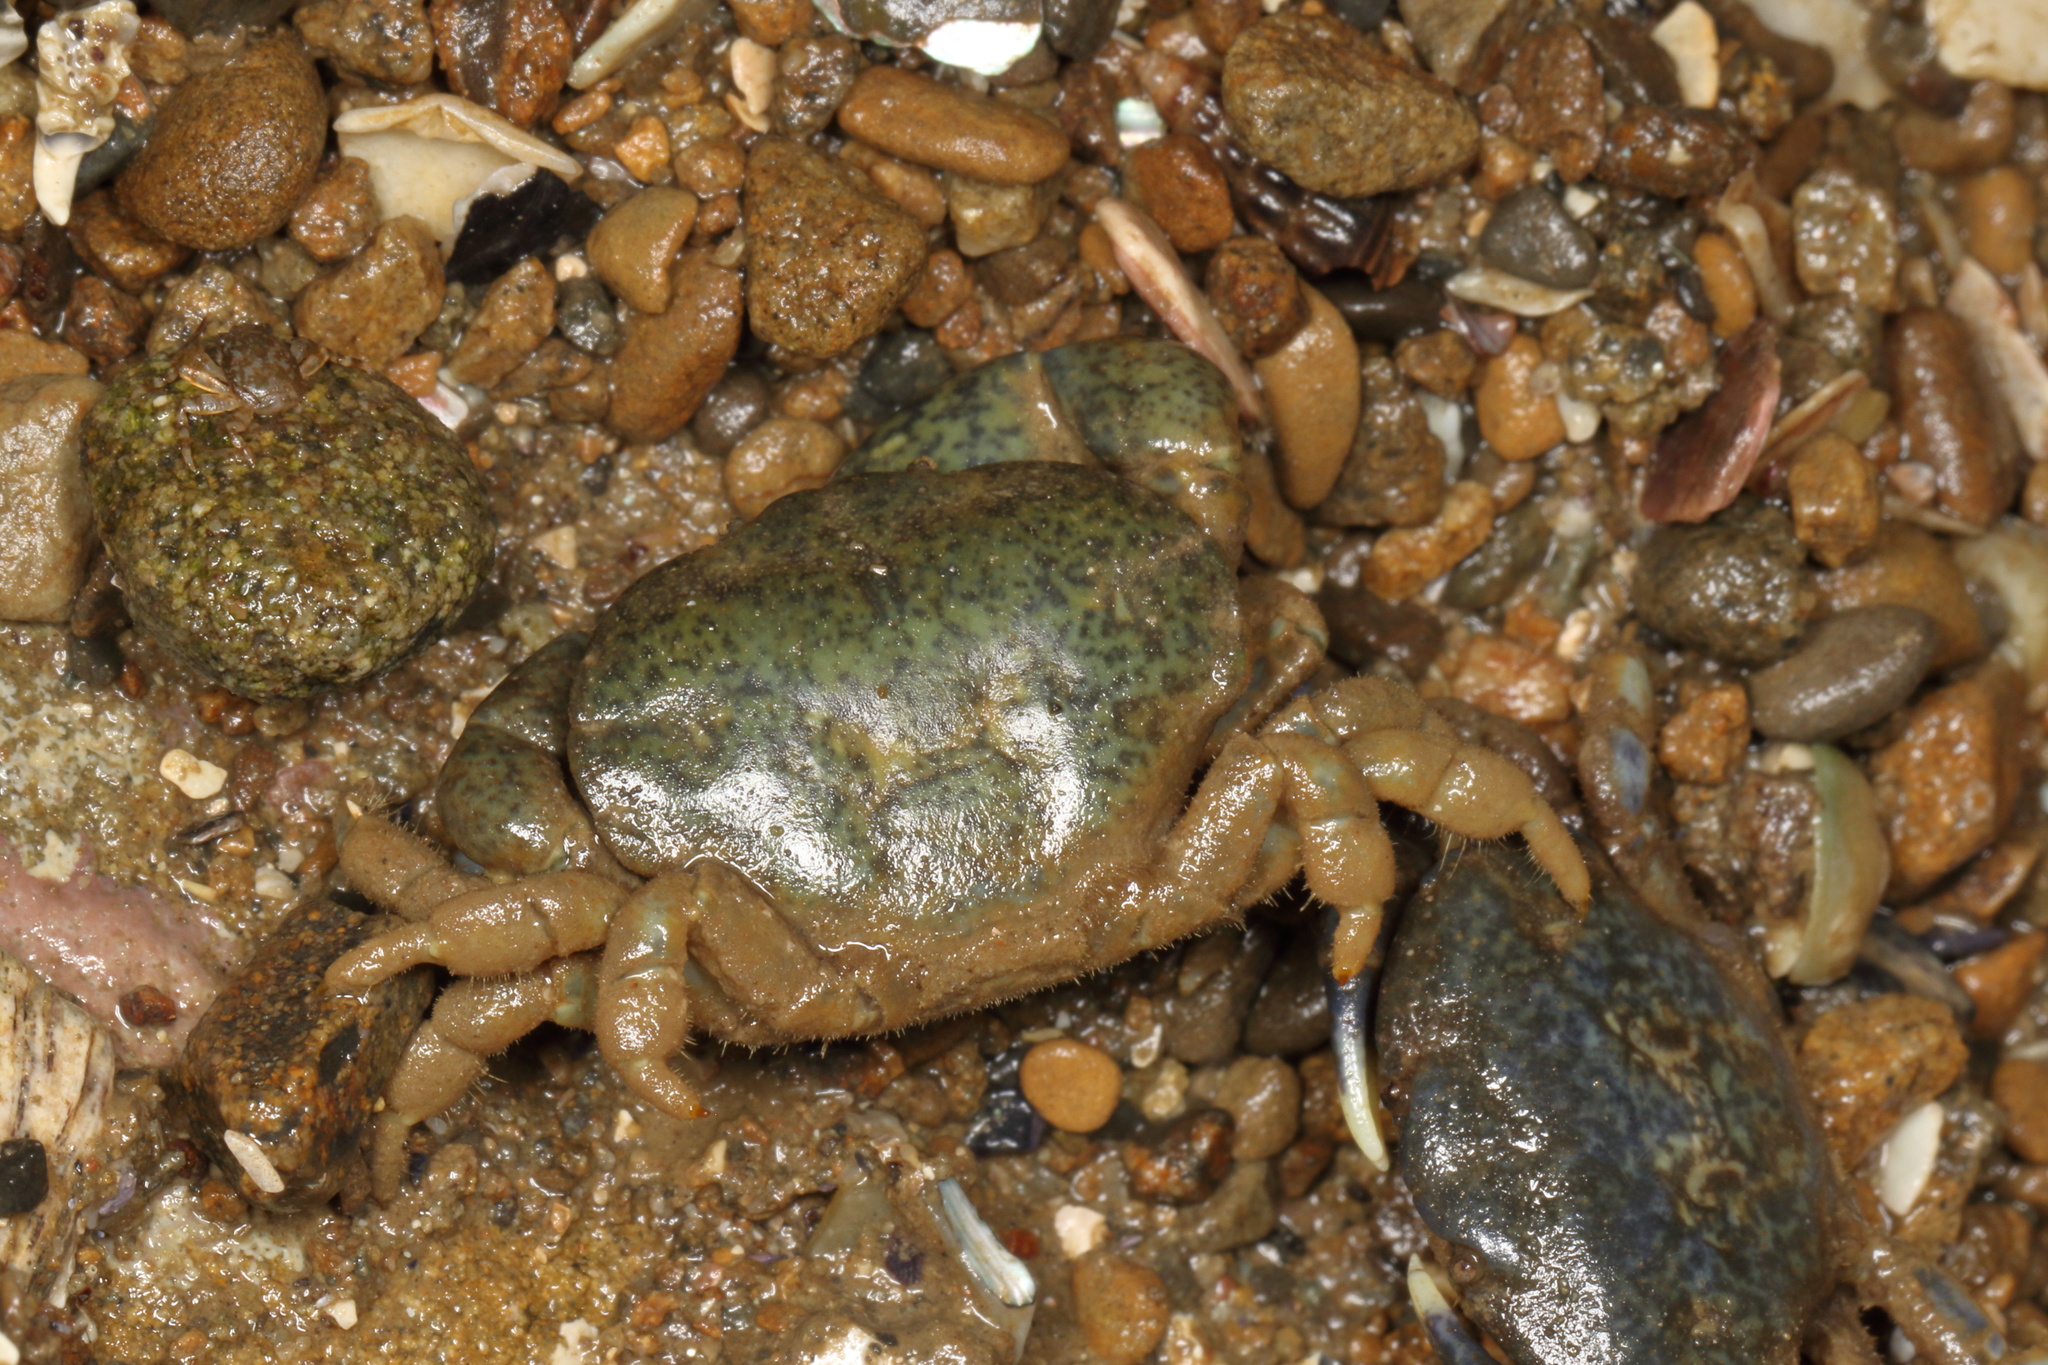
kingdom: Animalia
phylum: Arthropoda
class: Malacostraca
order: Decapoda
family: Heteroziidae
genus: Heterozius
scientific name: Heterozius rotundifrons
